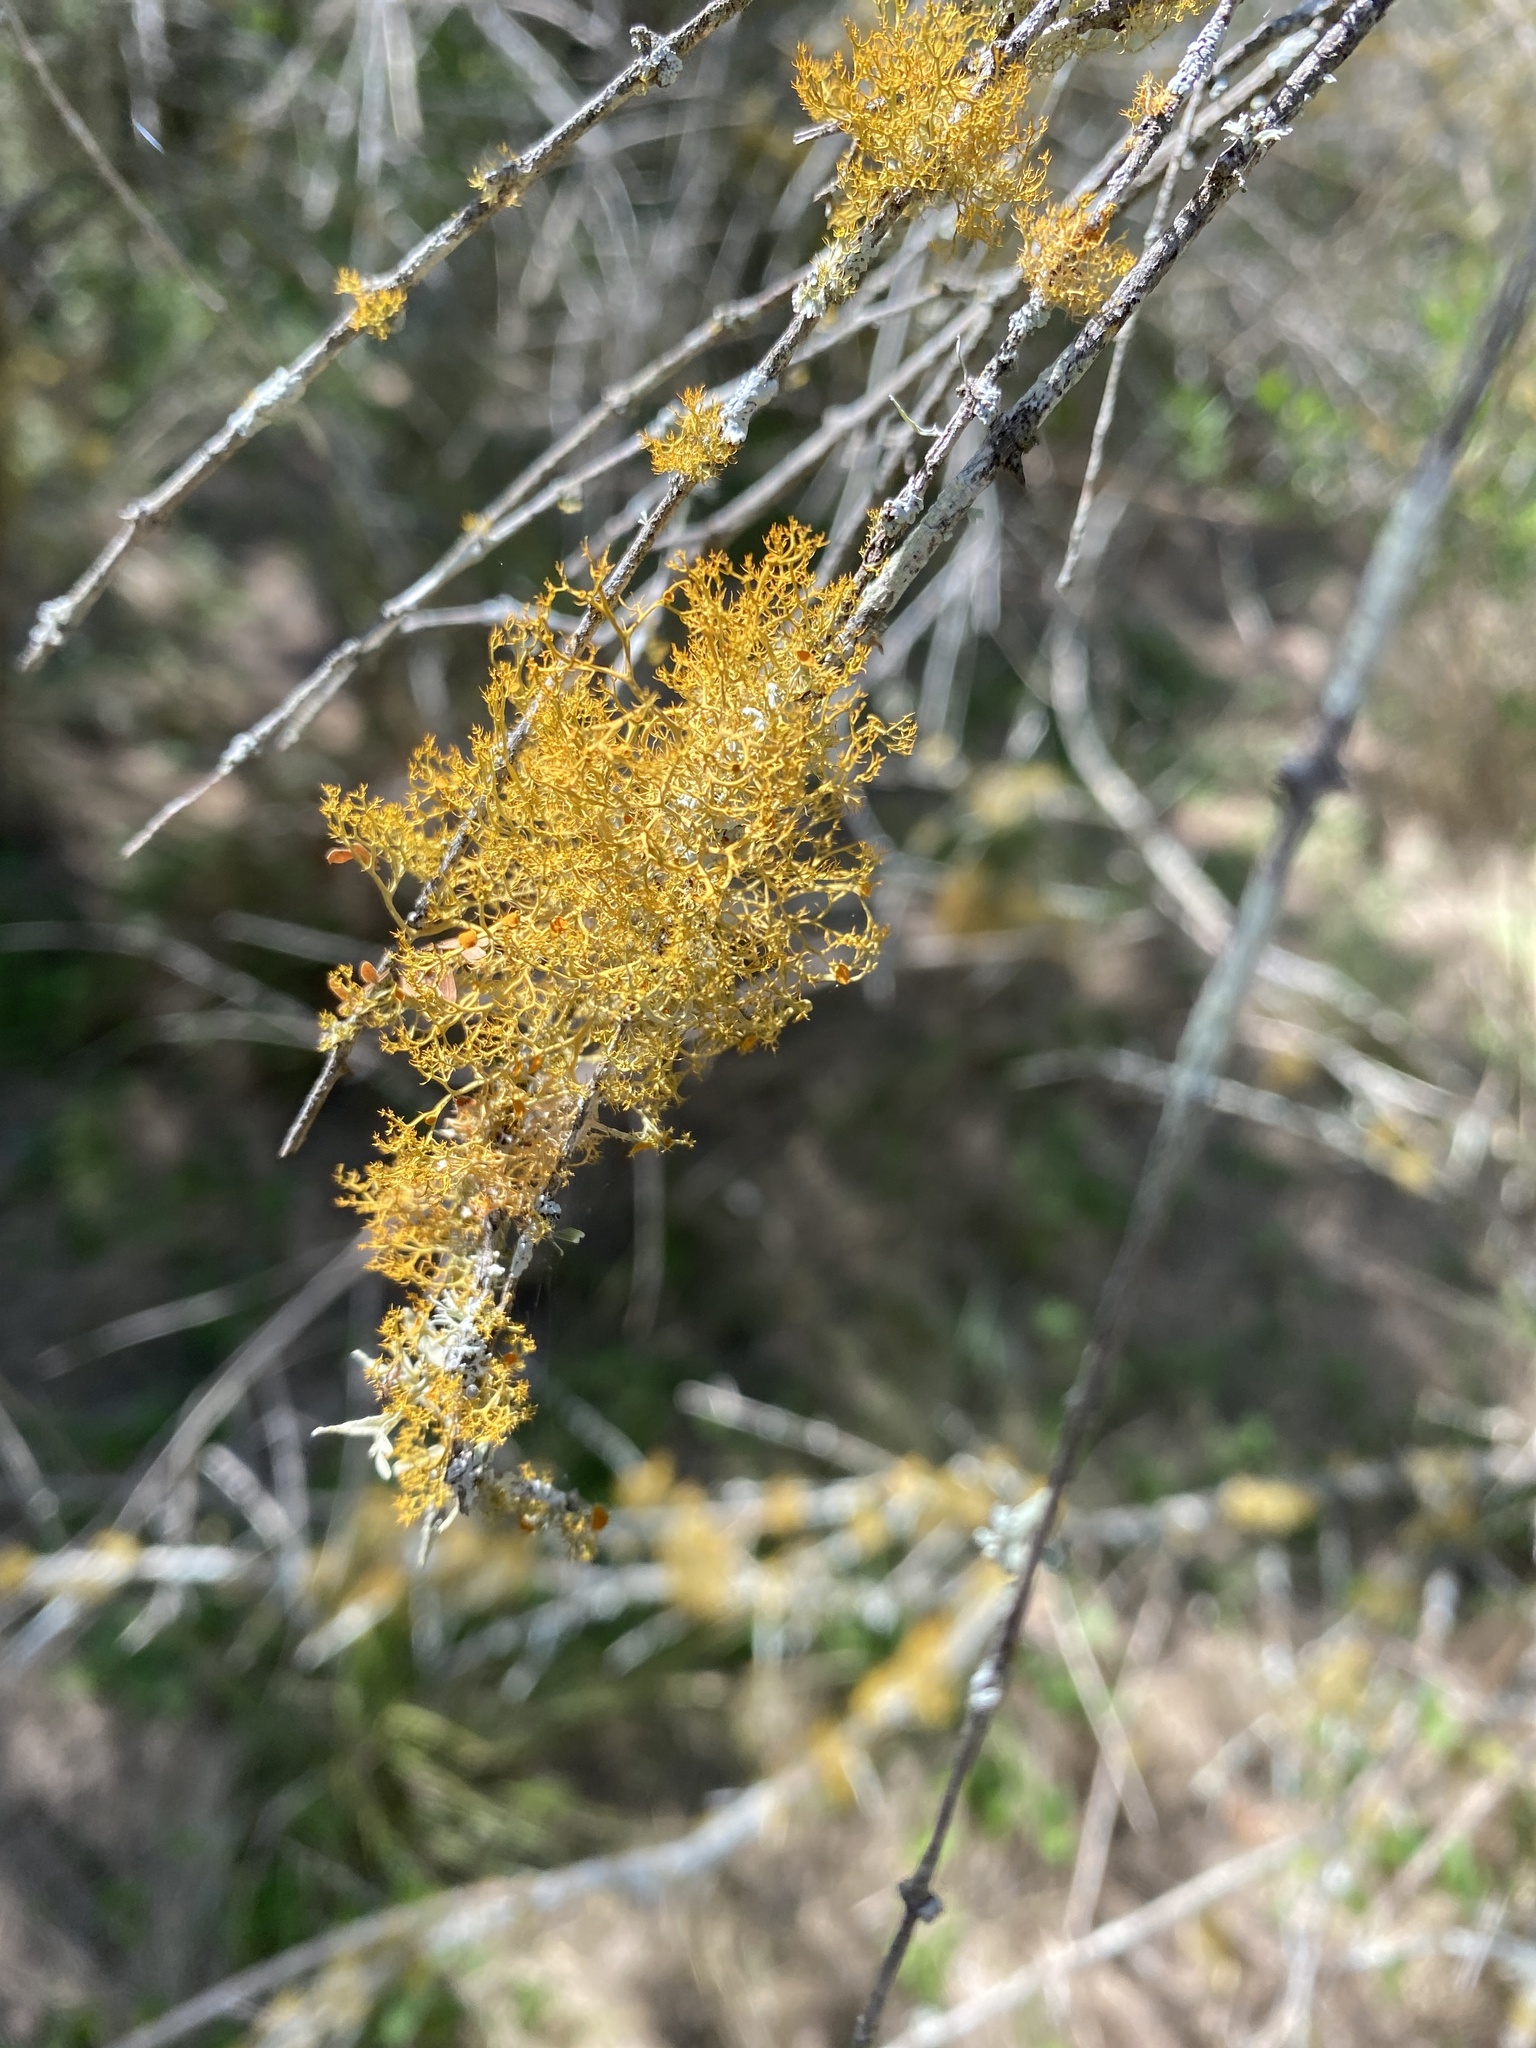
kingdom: Fungi
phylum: Ascomycota
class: Lecanoromycetes
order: Teloschistales
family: Teloschistaceae
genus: Teloschistes
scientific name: Teloschistes exilis
